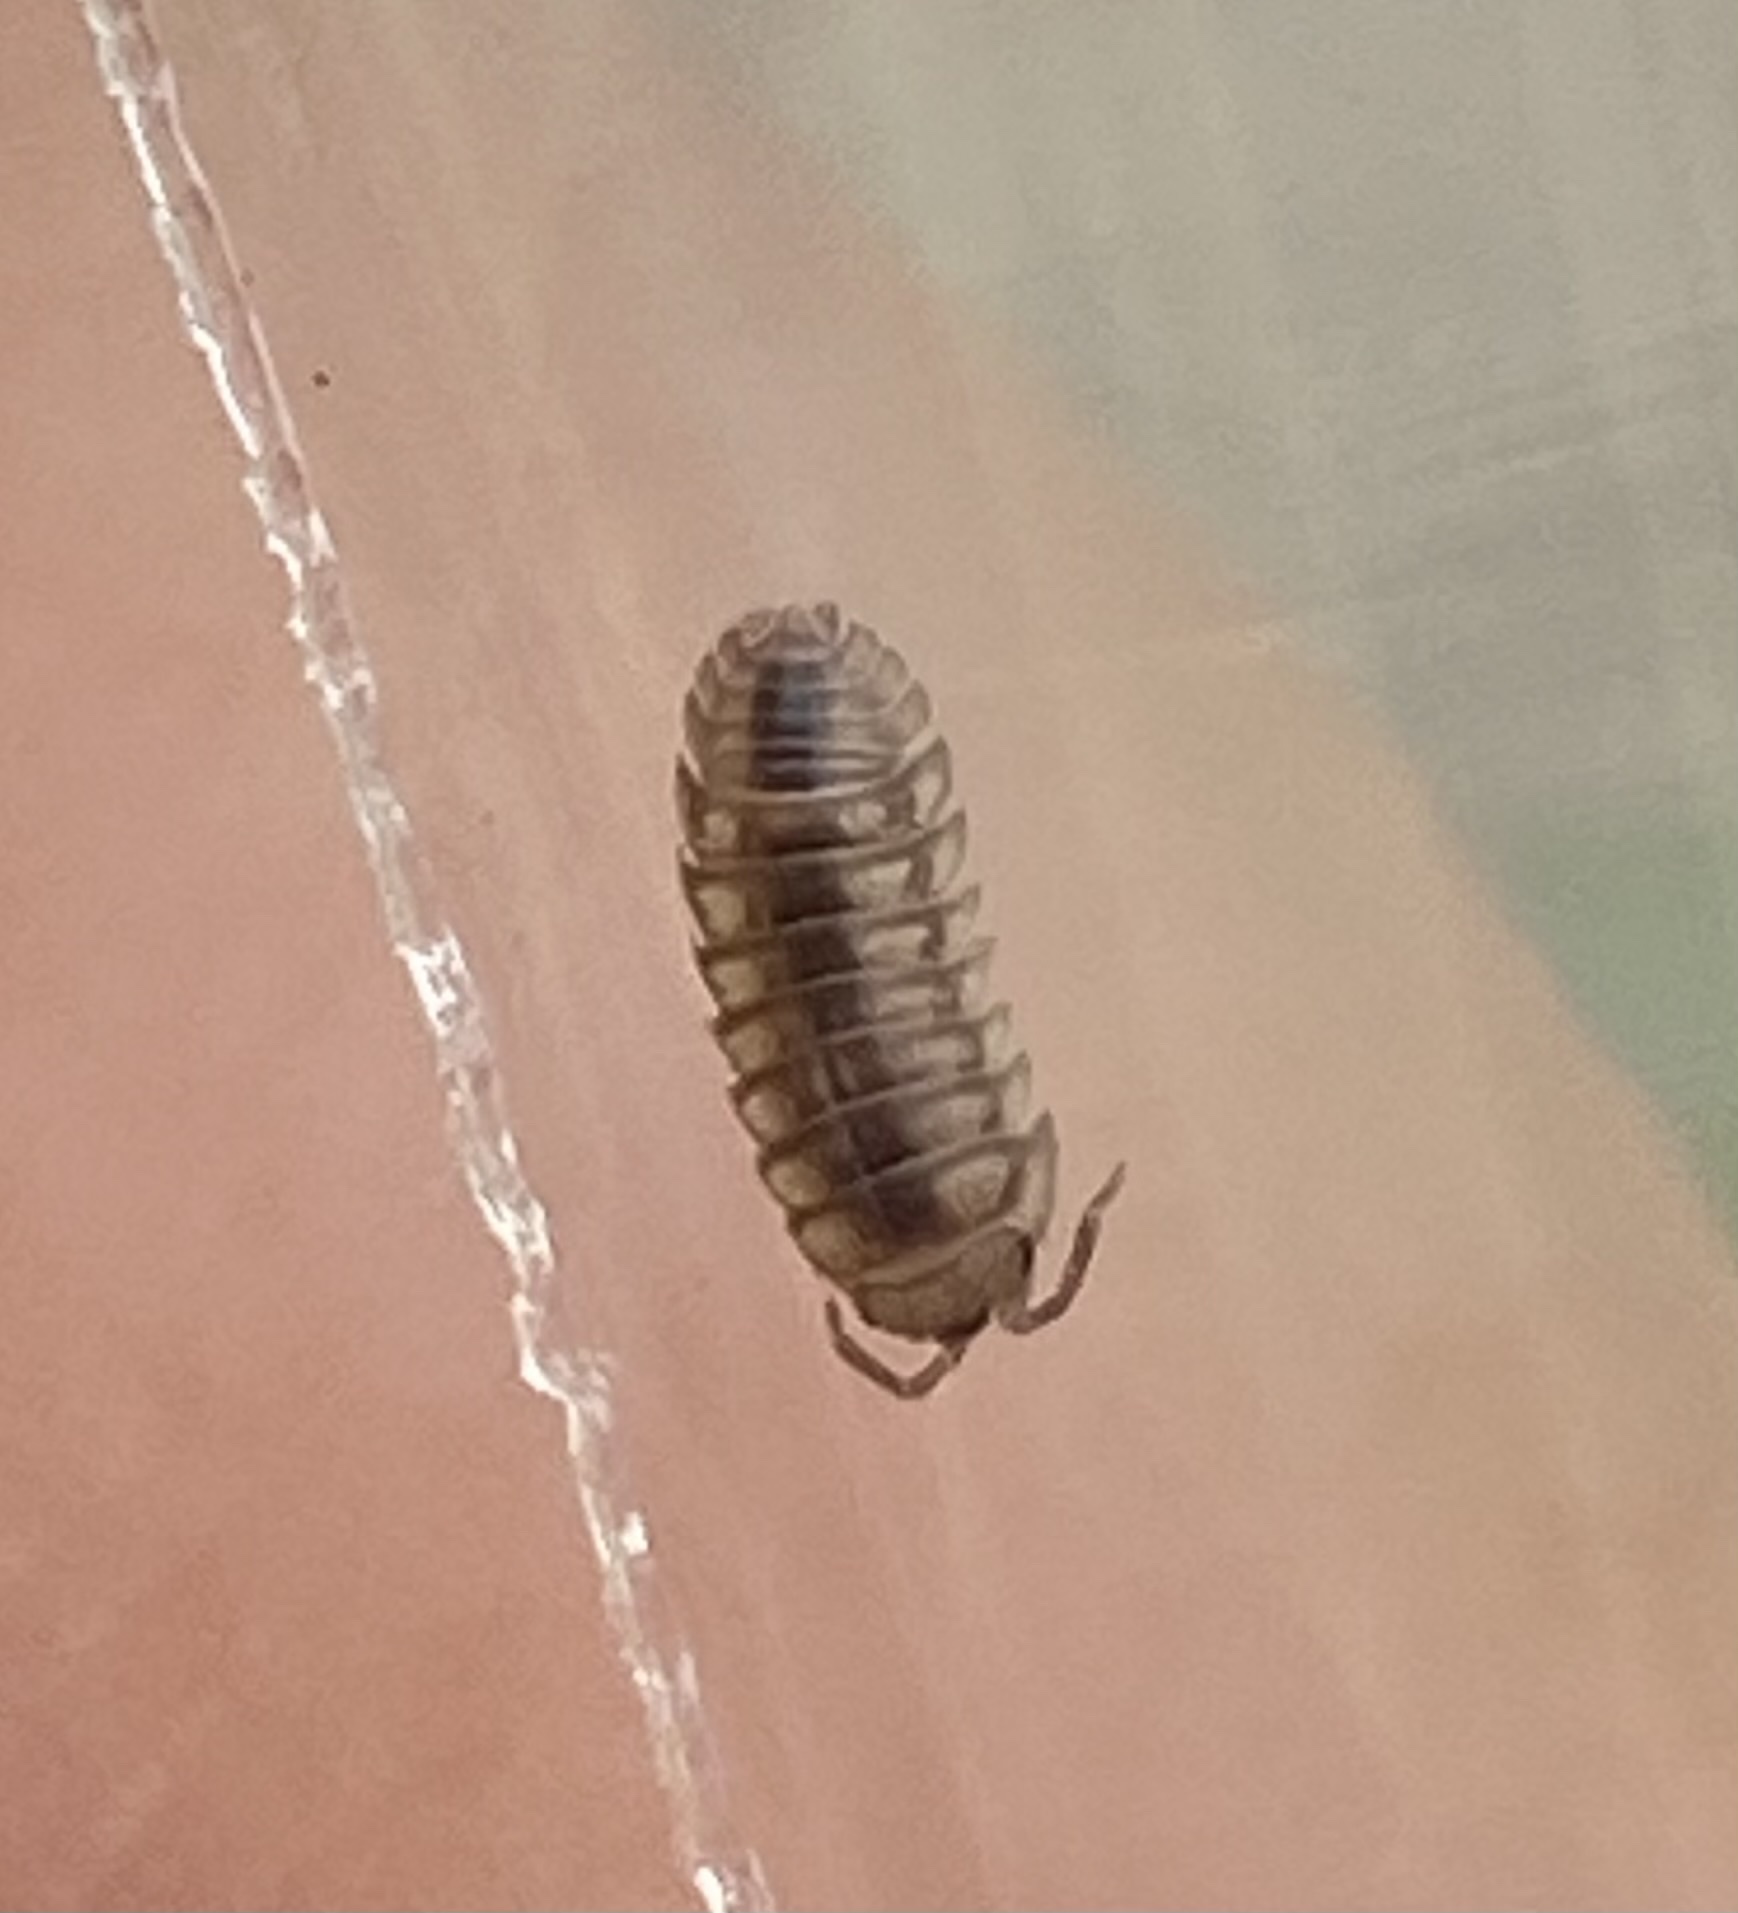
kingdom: Animalia
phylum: Arthropoda
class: Malacostraca
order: Isopoda
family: Armadillidiidae
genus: Armadillidium
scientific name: Armadillidium nasatum
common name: Isopod
